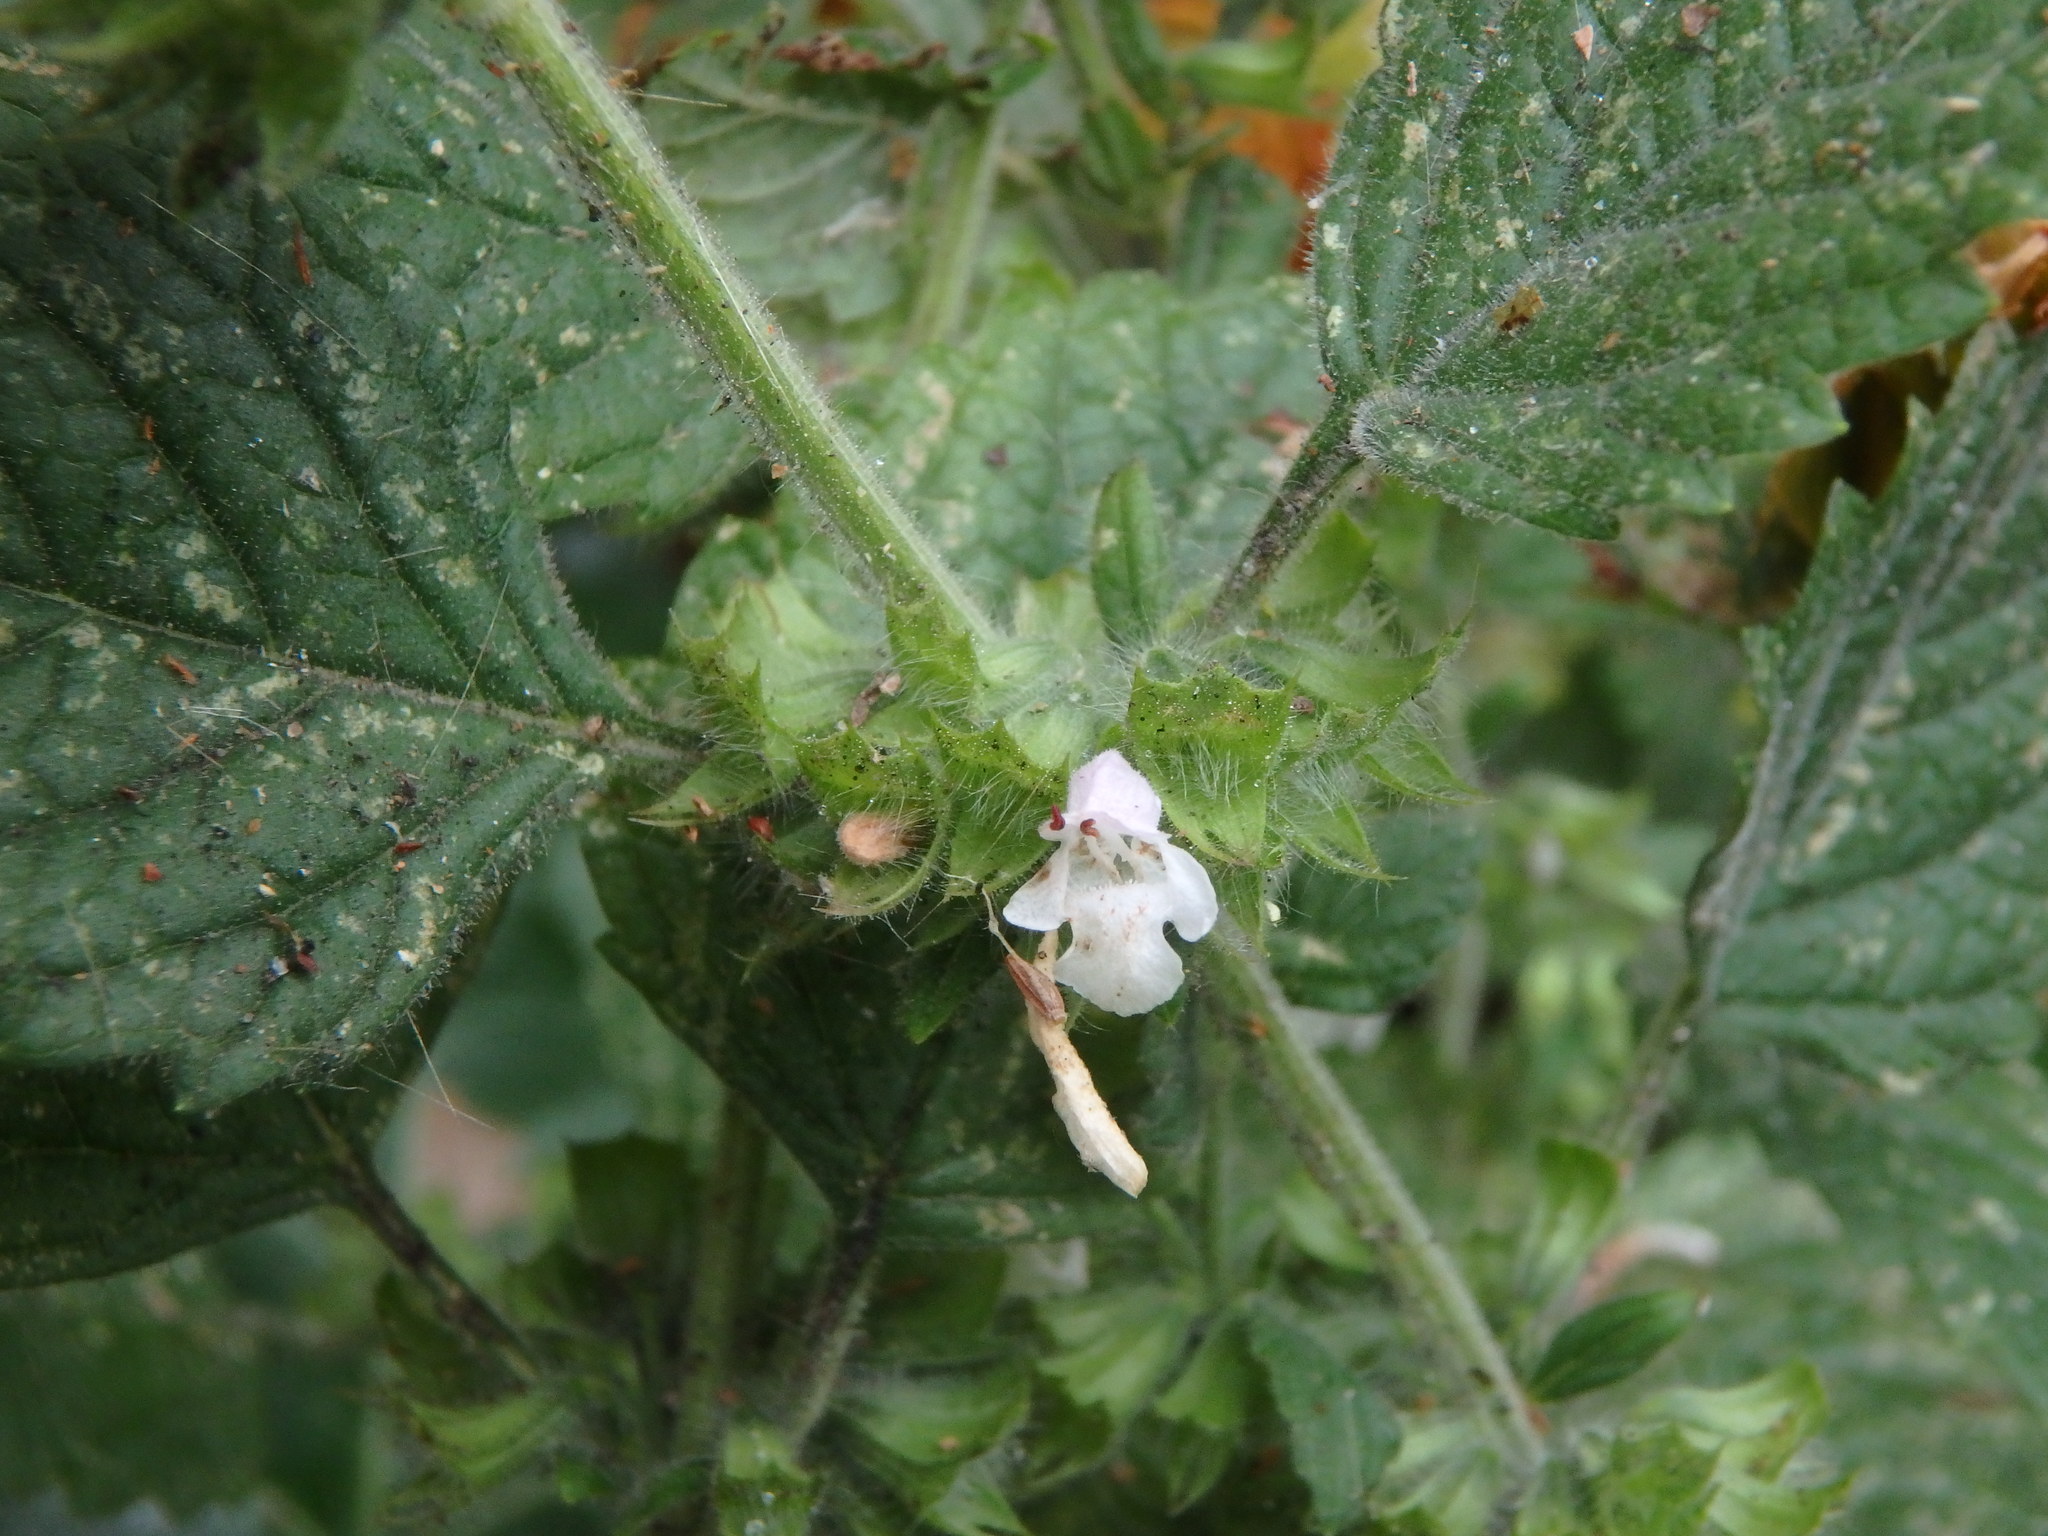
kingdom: Plantae
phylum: Tracheophyta
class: Magnoliopsida
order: Lamiales
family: Lamiaceae
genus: Melissa
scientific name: Melissa officinalis
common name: Balm
